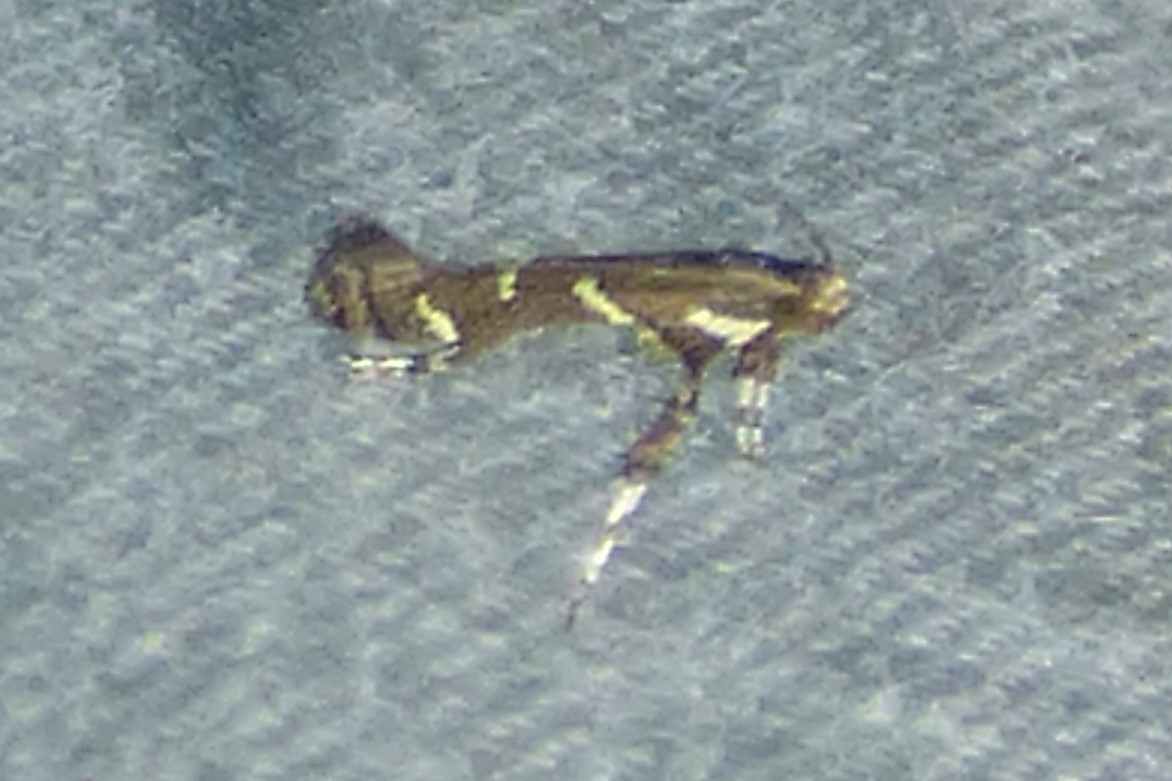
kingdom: Animalia
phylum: Arthropoda
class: Insecta
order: Lepidoptera
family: Gracillariidae
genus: Caloptilia
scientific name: Caloptilia triadicae
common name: Tallow leaf roller
